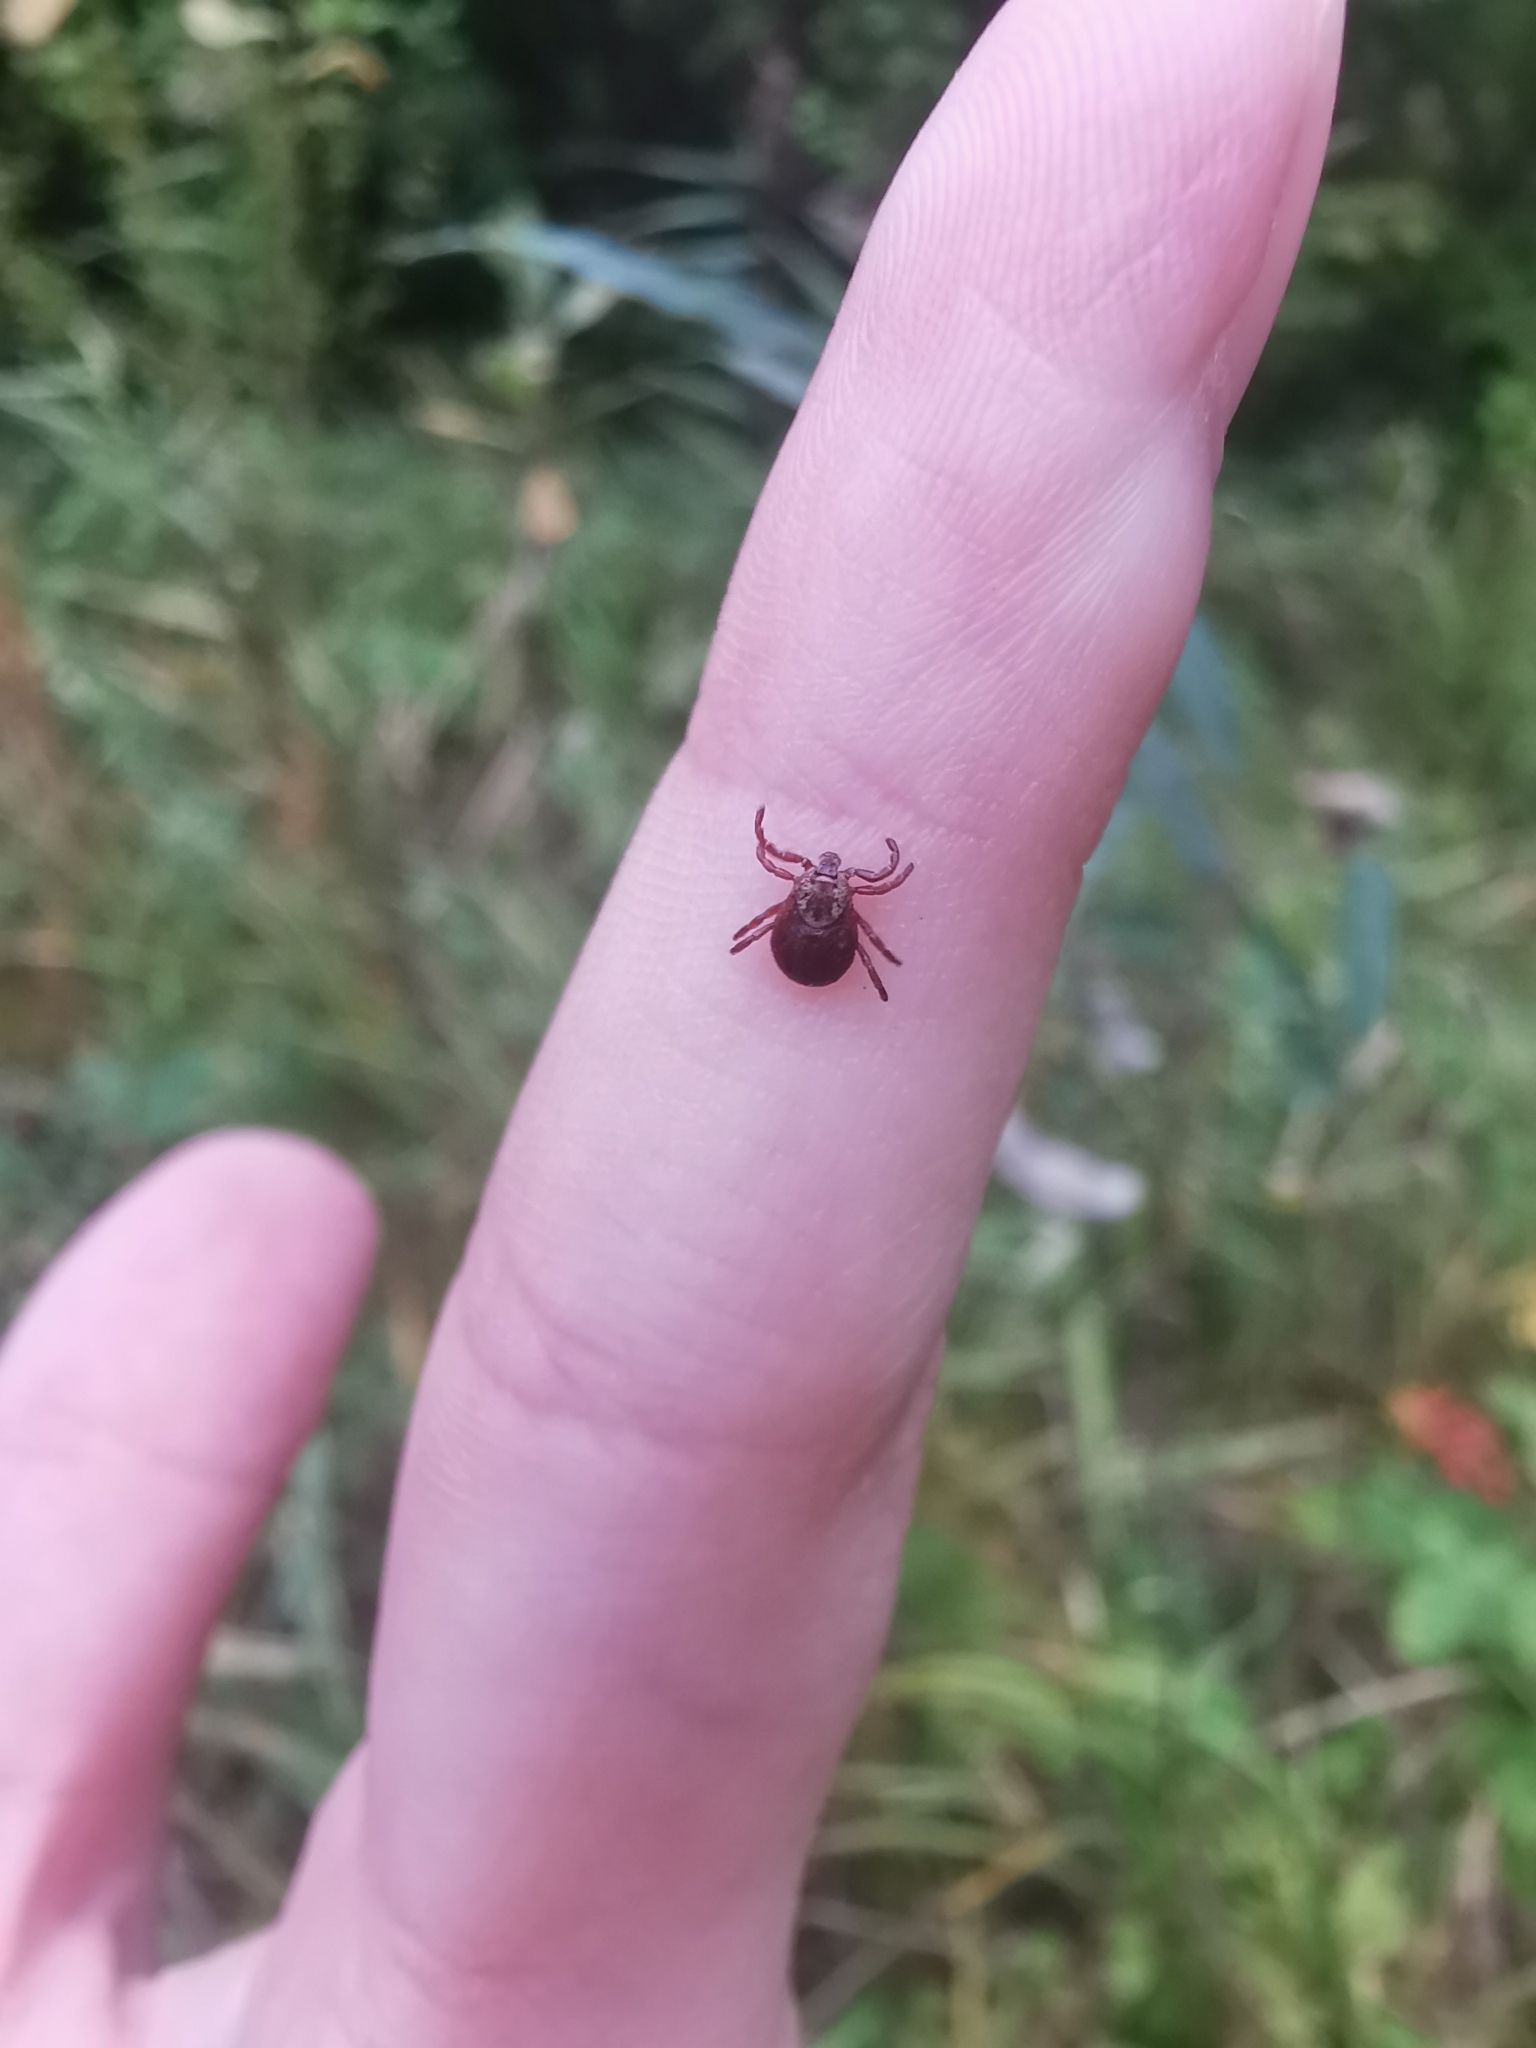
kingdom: Animalia
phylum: Arthropoda
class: Arachnida
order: Ixodida
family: Ixodidae
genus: Dermacentor
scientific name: Dermacentor reticulatus
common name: Ornate cow tick
